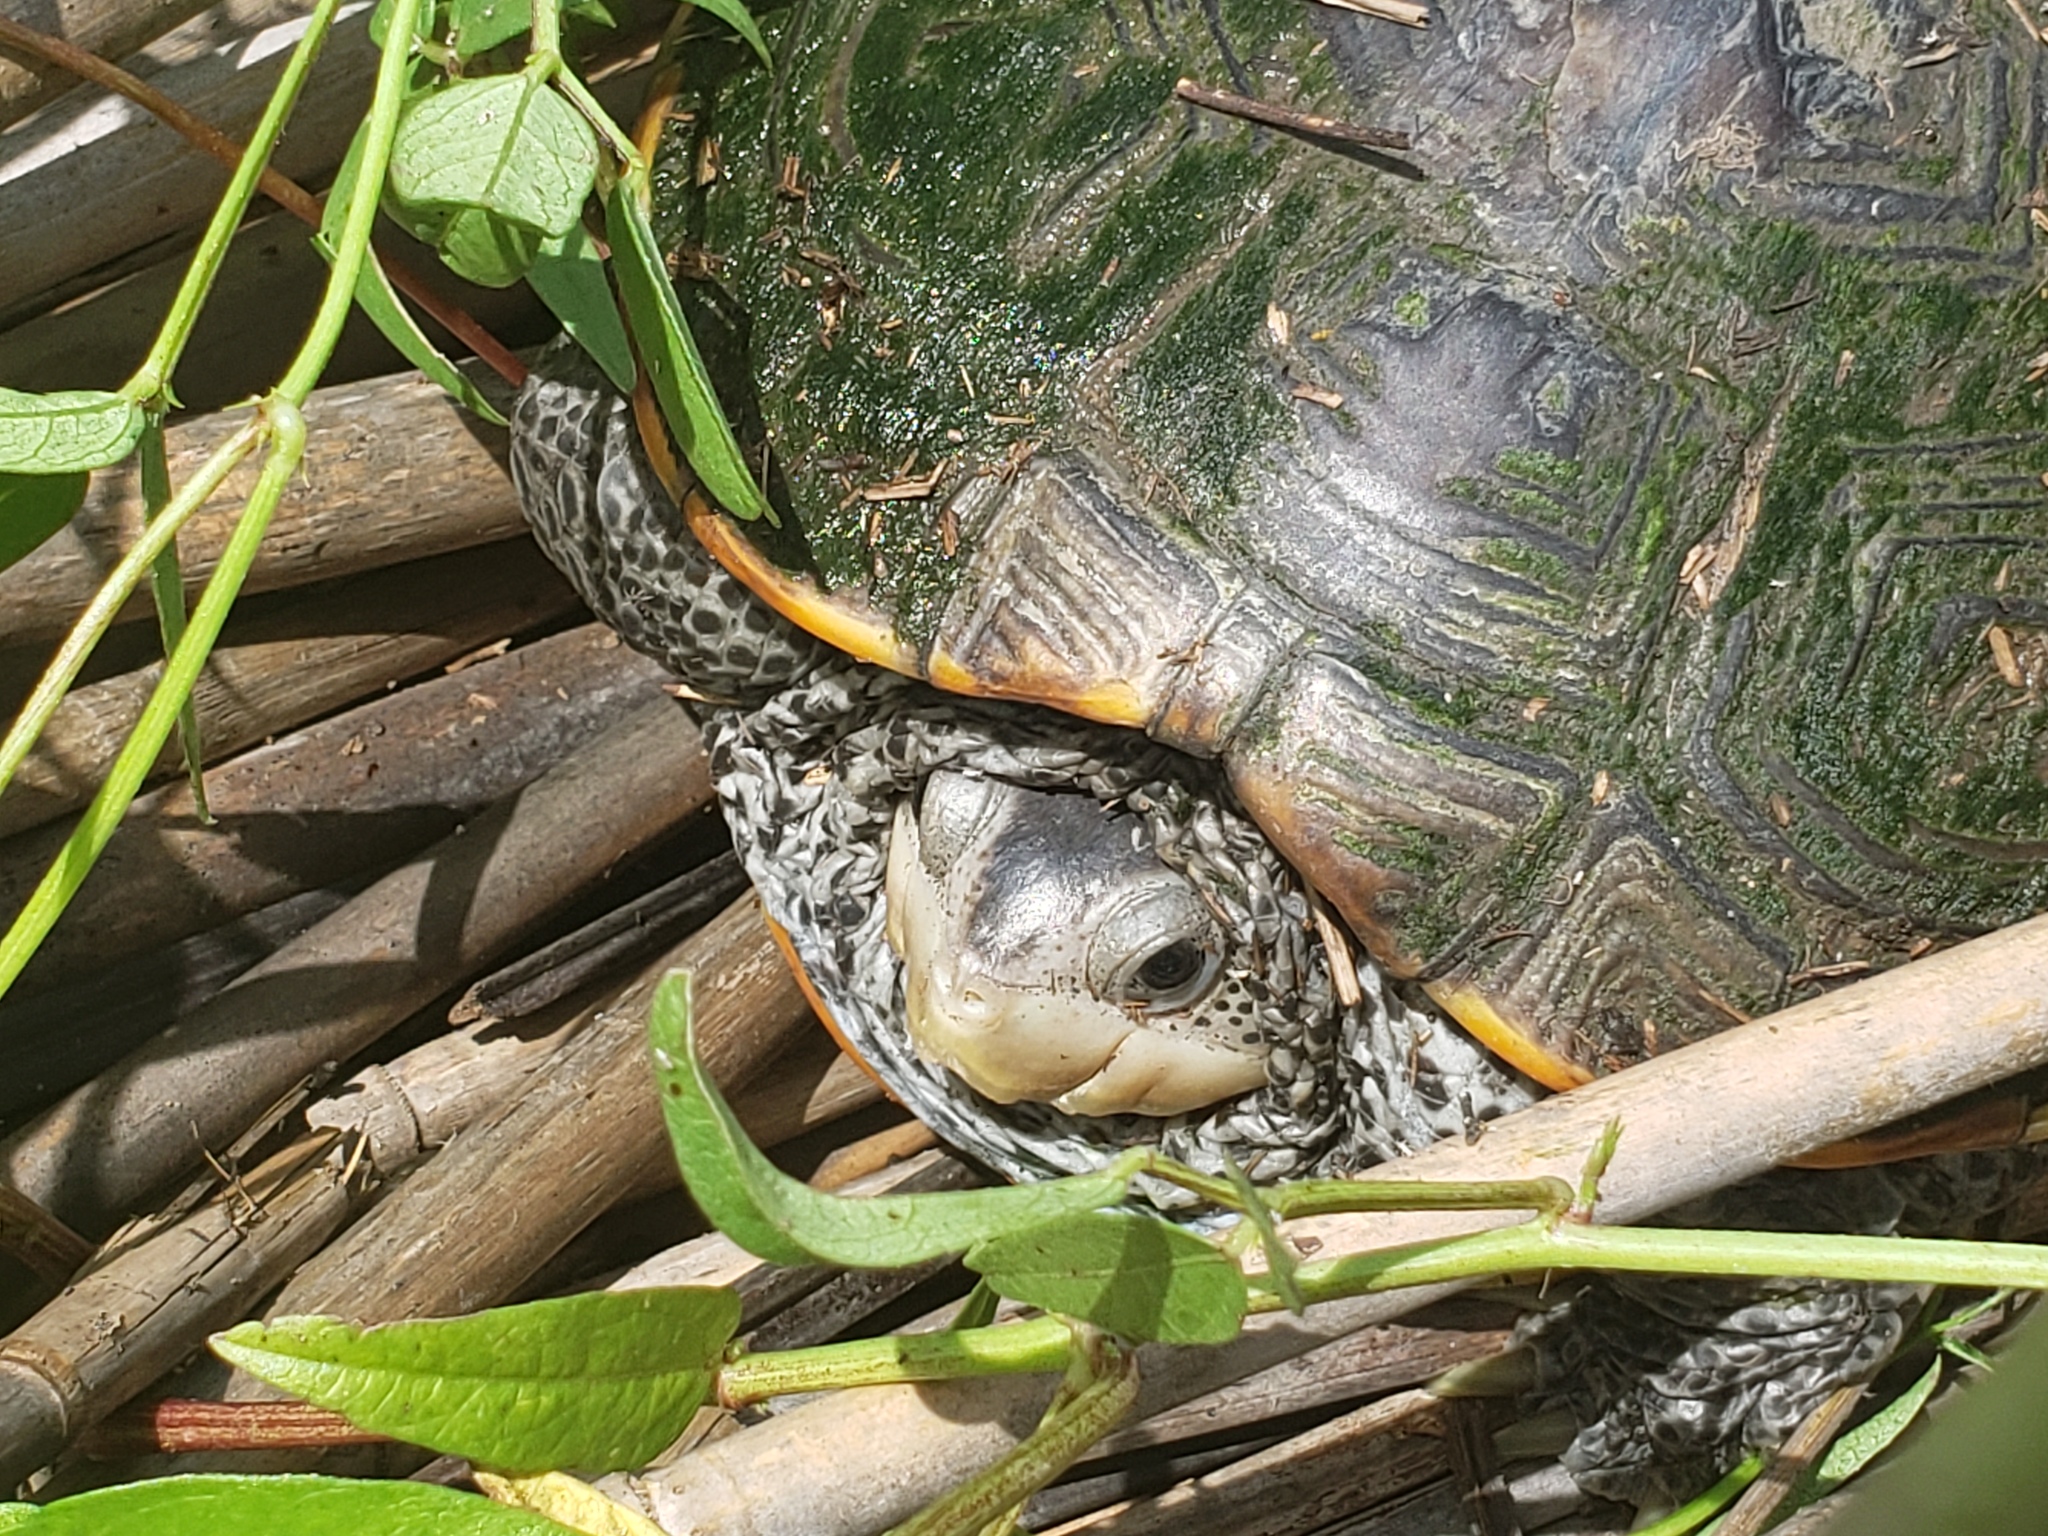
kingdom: Animalia
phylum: Chordata
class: Testudines
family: Emydidae
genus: Malaclemys
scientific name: Malaclemys terrapin
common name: Diamondback terrapin
